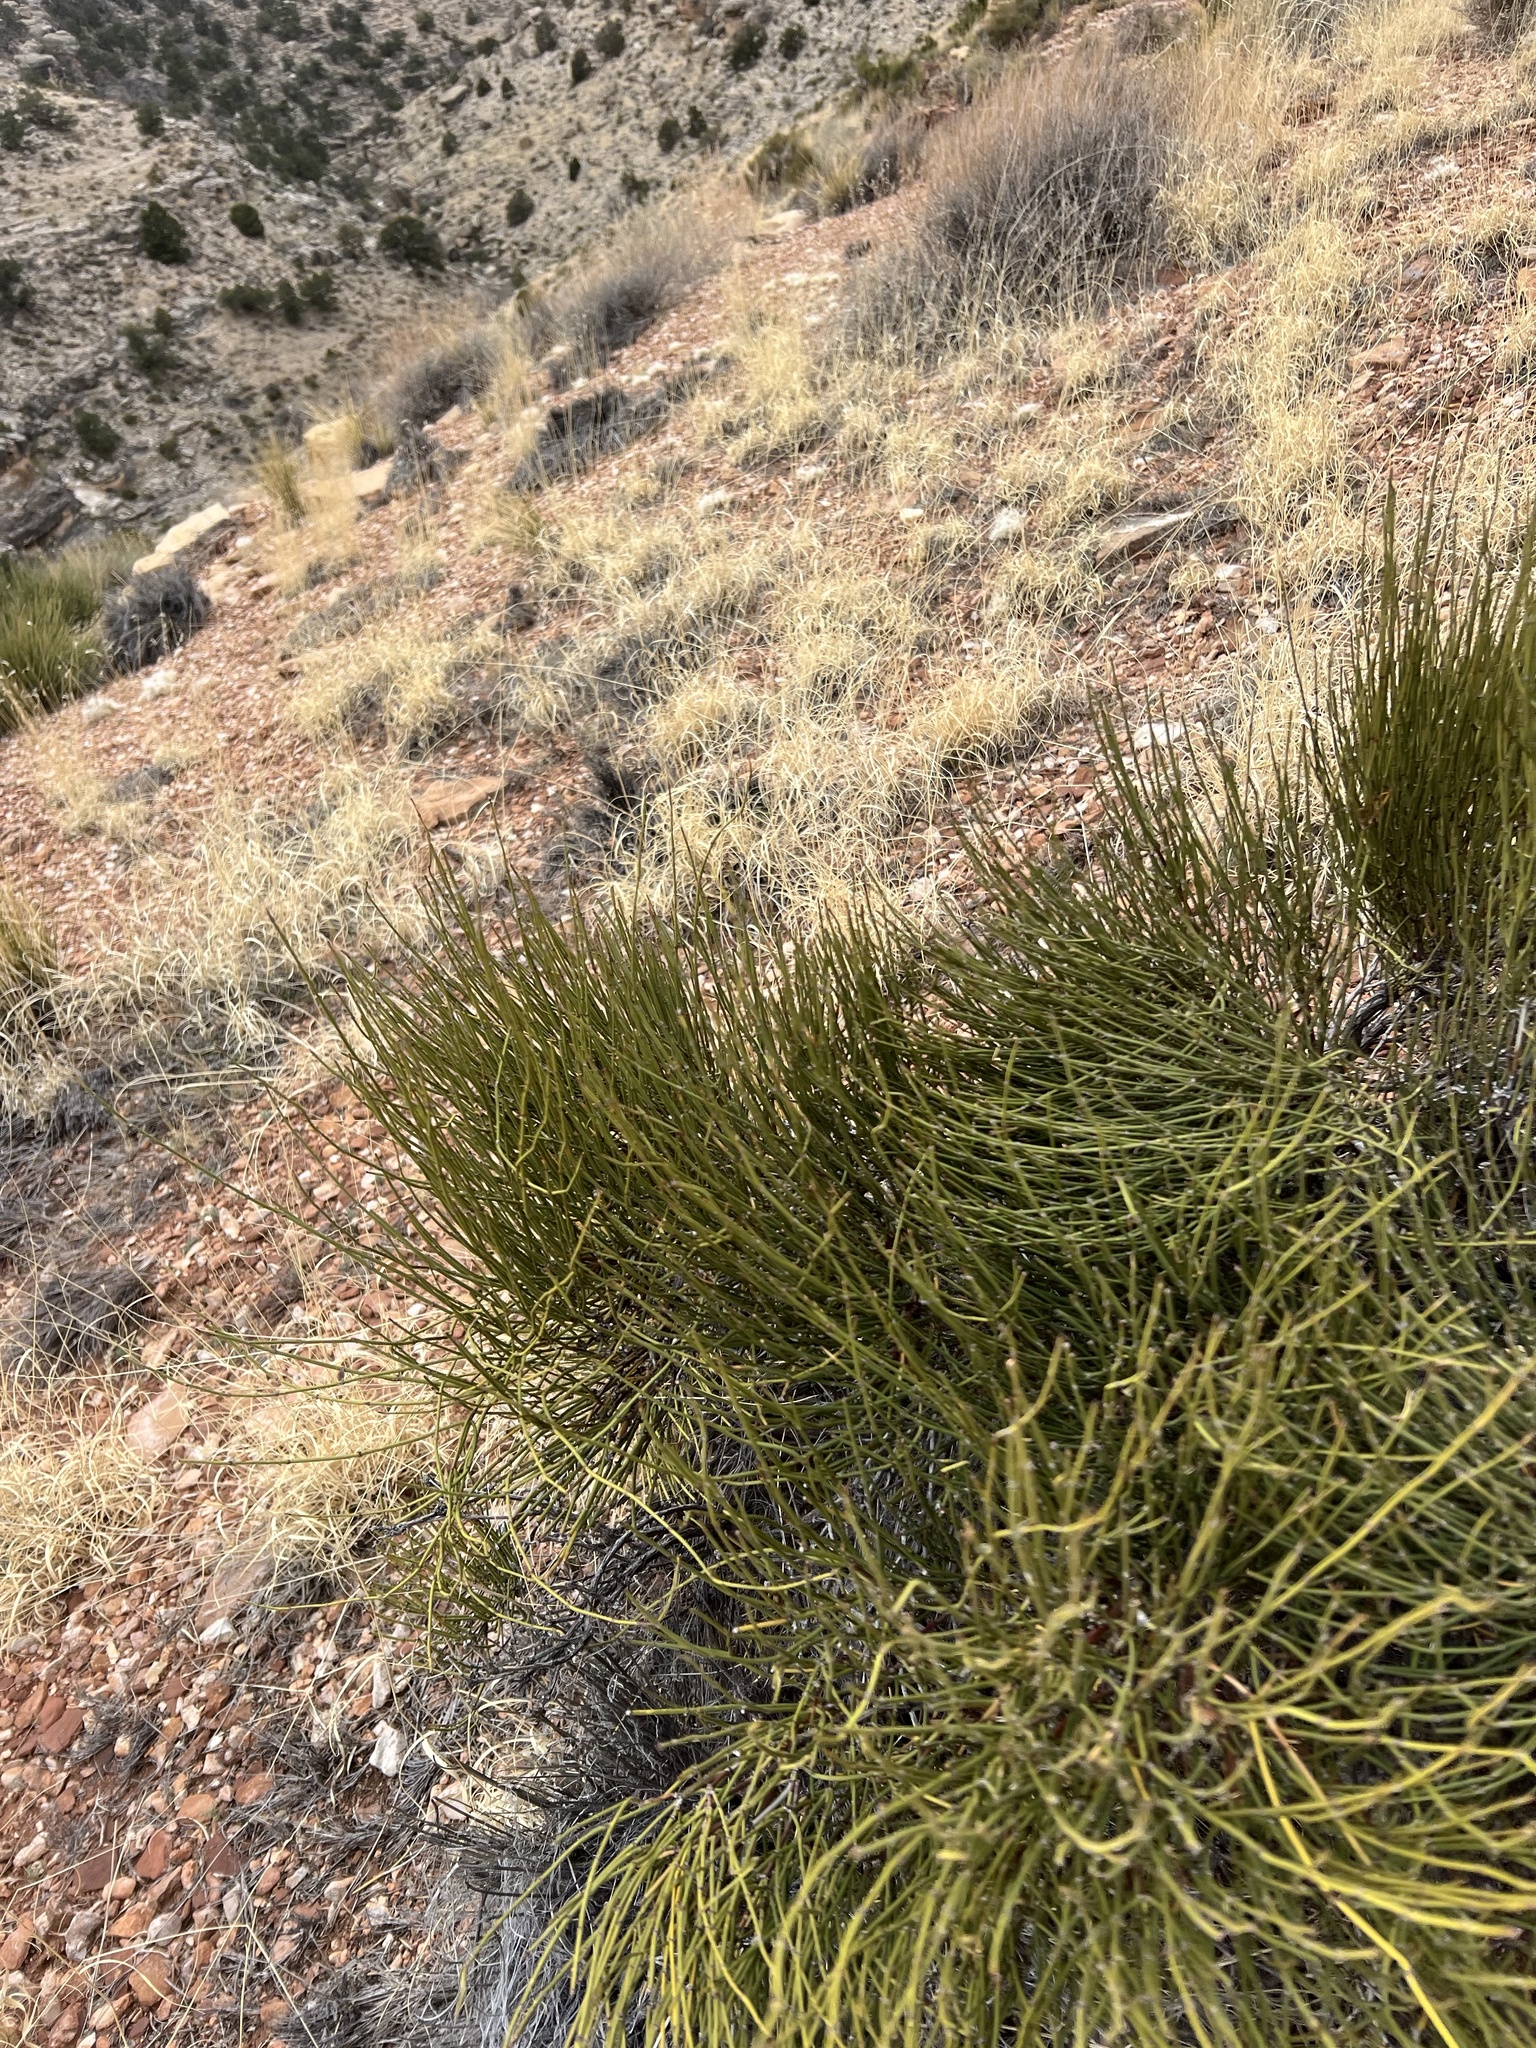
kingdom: Plantae
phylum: Tracheophyta
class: Gnetopsida
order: Ephedrales
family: Ephedraceae
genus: Ephedra
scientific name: Ephedra viridis
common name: Green ephedra
